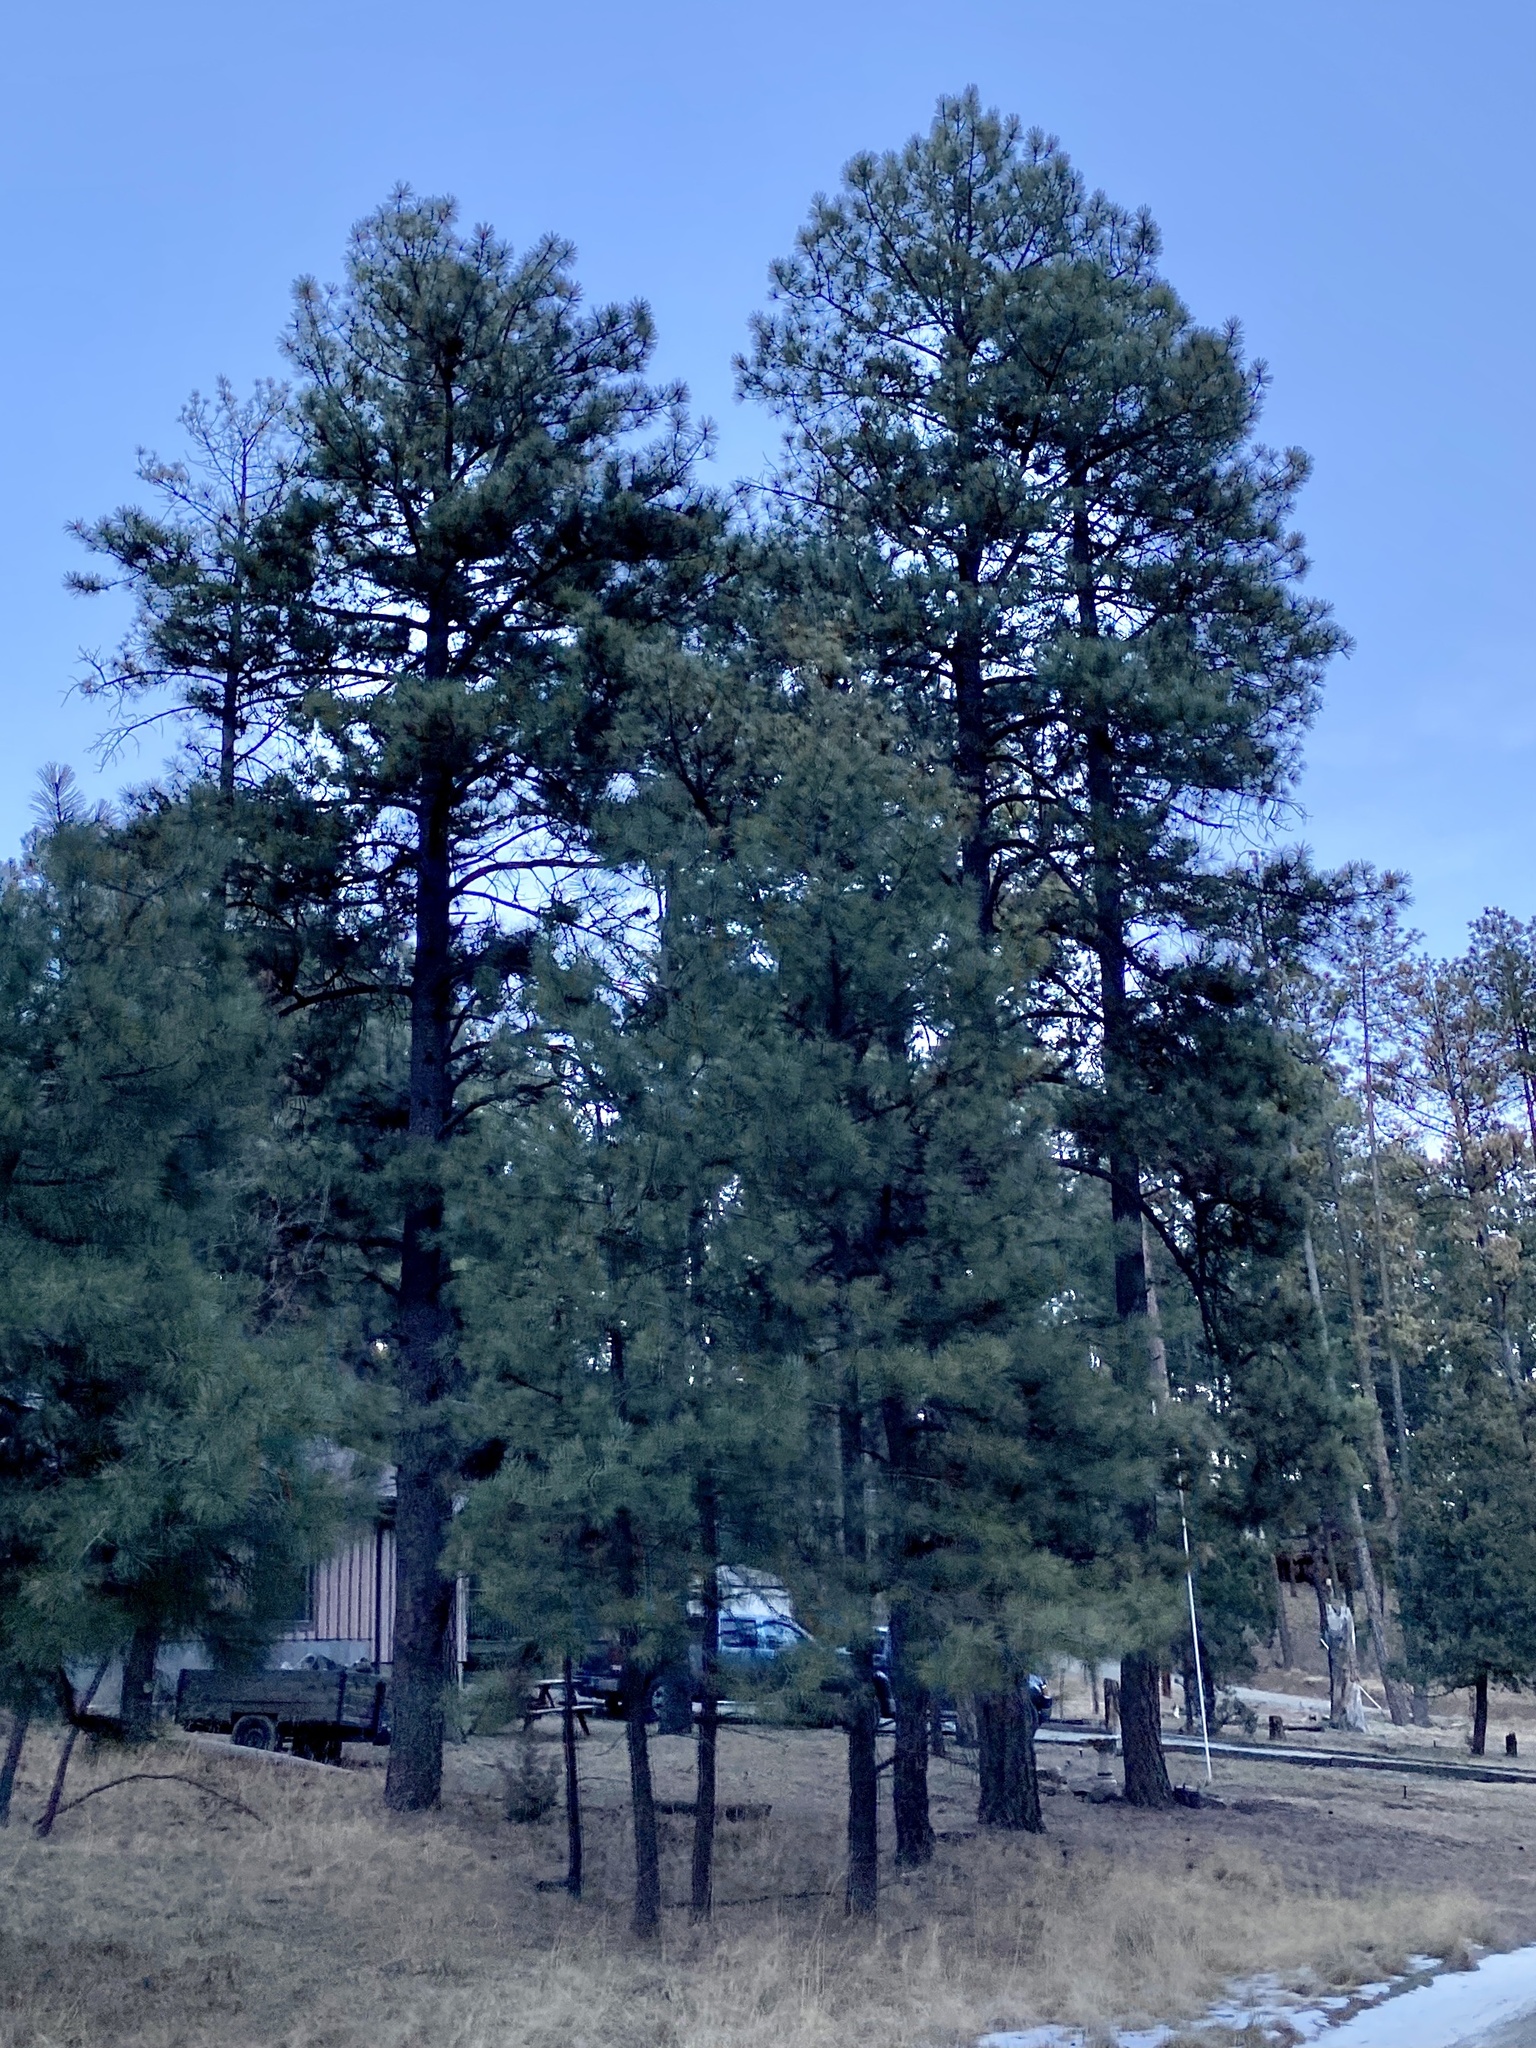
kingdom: Plantae
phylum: Tracheophyta
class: Pinopsida
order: Pinales
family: Pinaceae
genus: Pinus
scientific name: Pinus ponderosa
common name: Western yellow-pine
